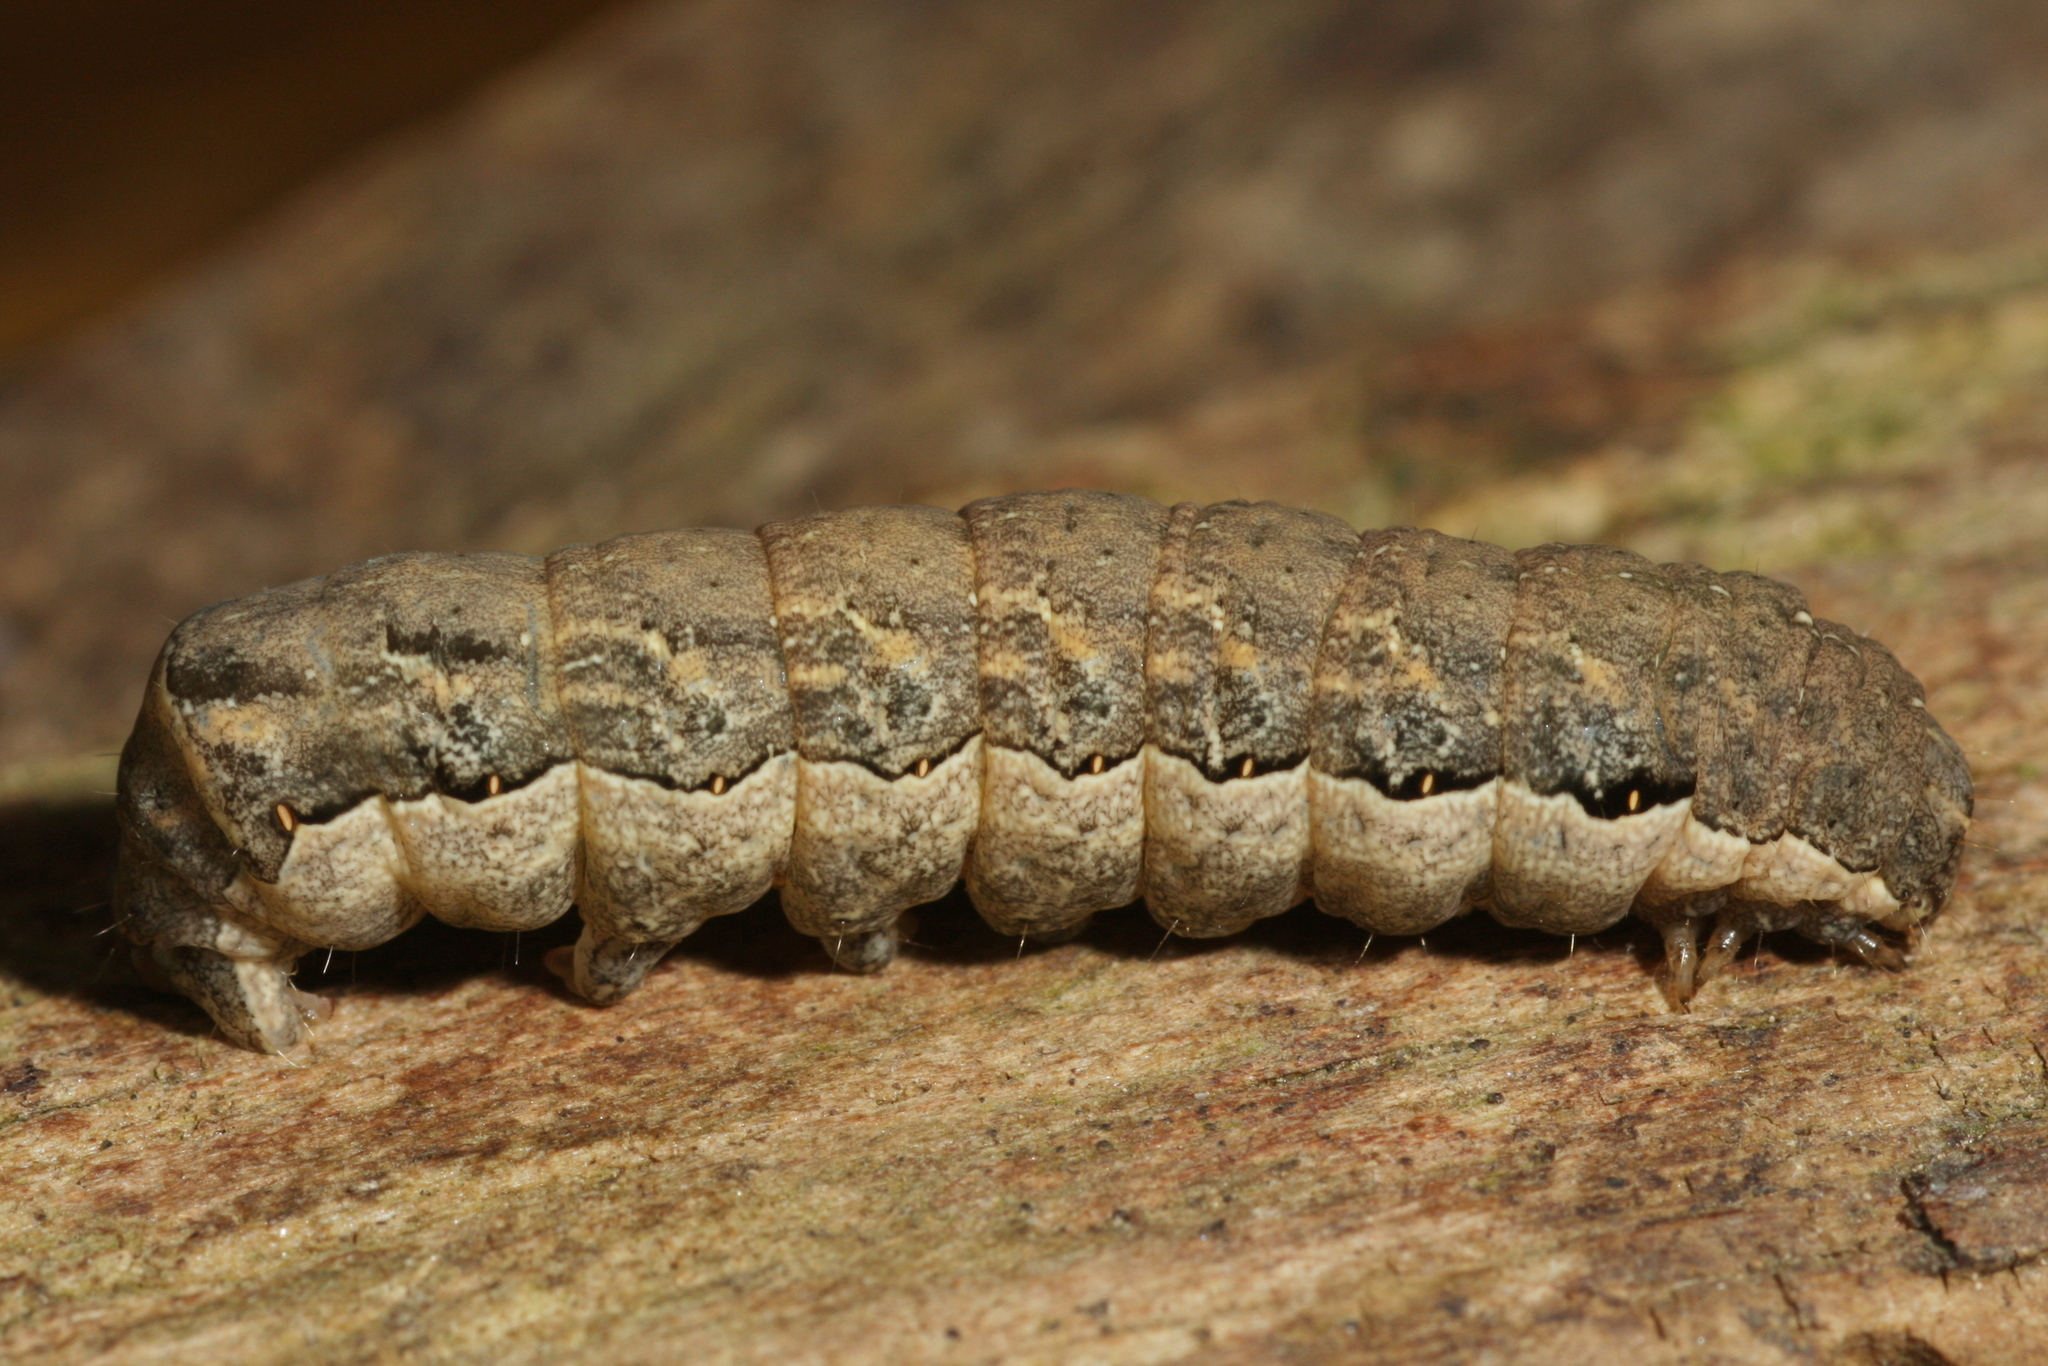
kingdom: Animalia
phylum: Arthropoda
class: Insecta
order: Lepidoptera
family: Noctuidae
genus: Naenia
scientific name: Naenia typica
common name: Gothic
